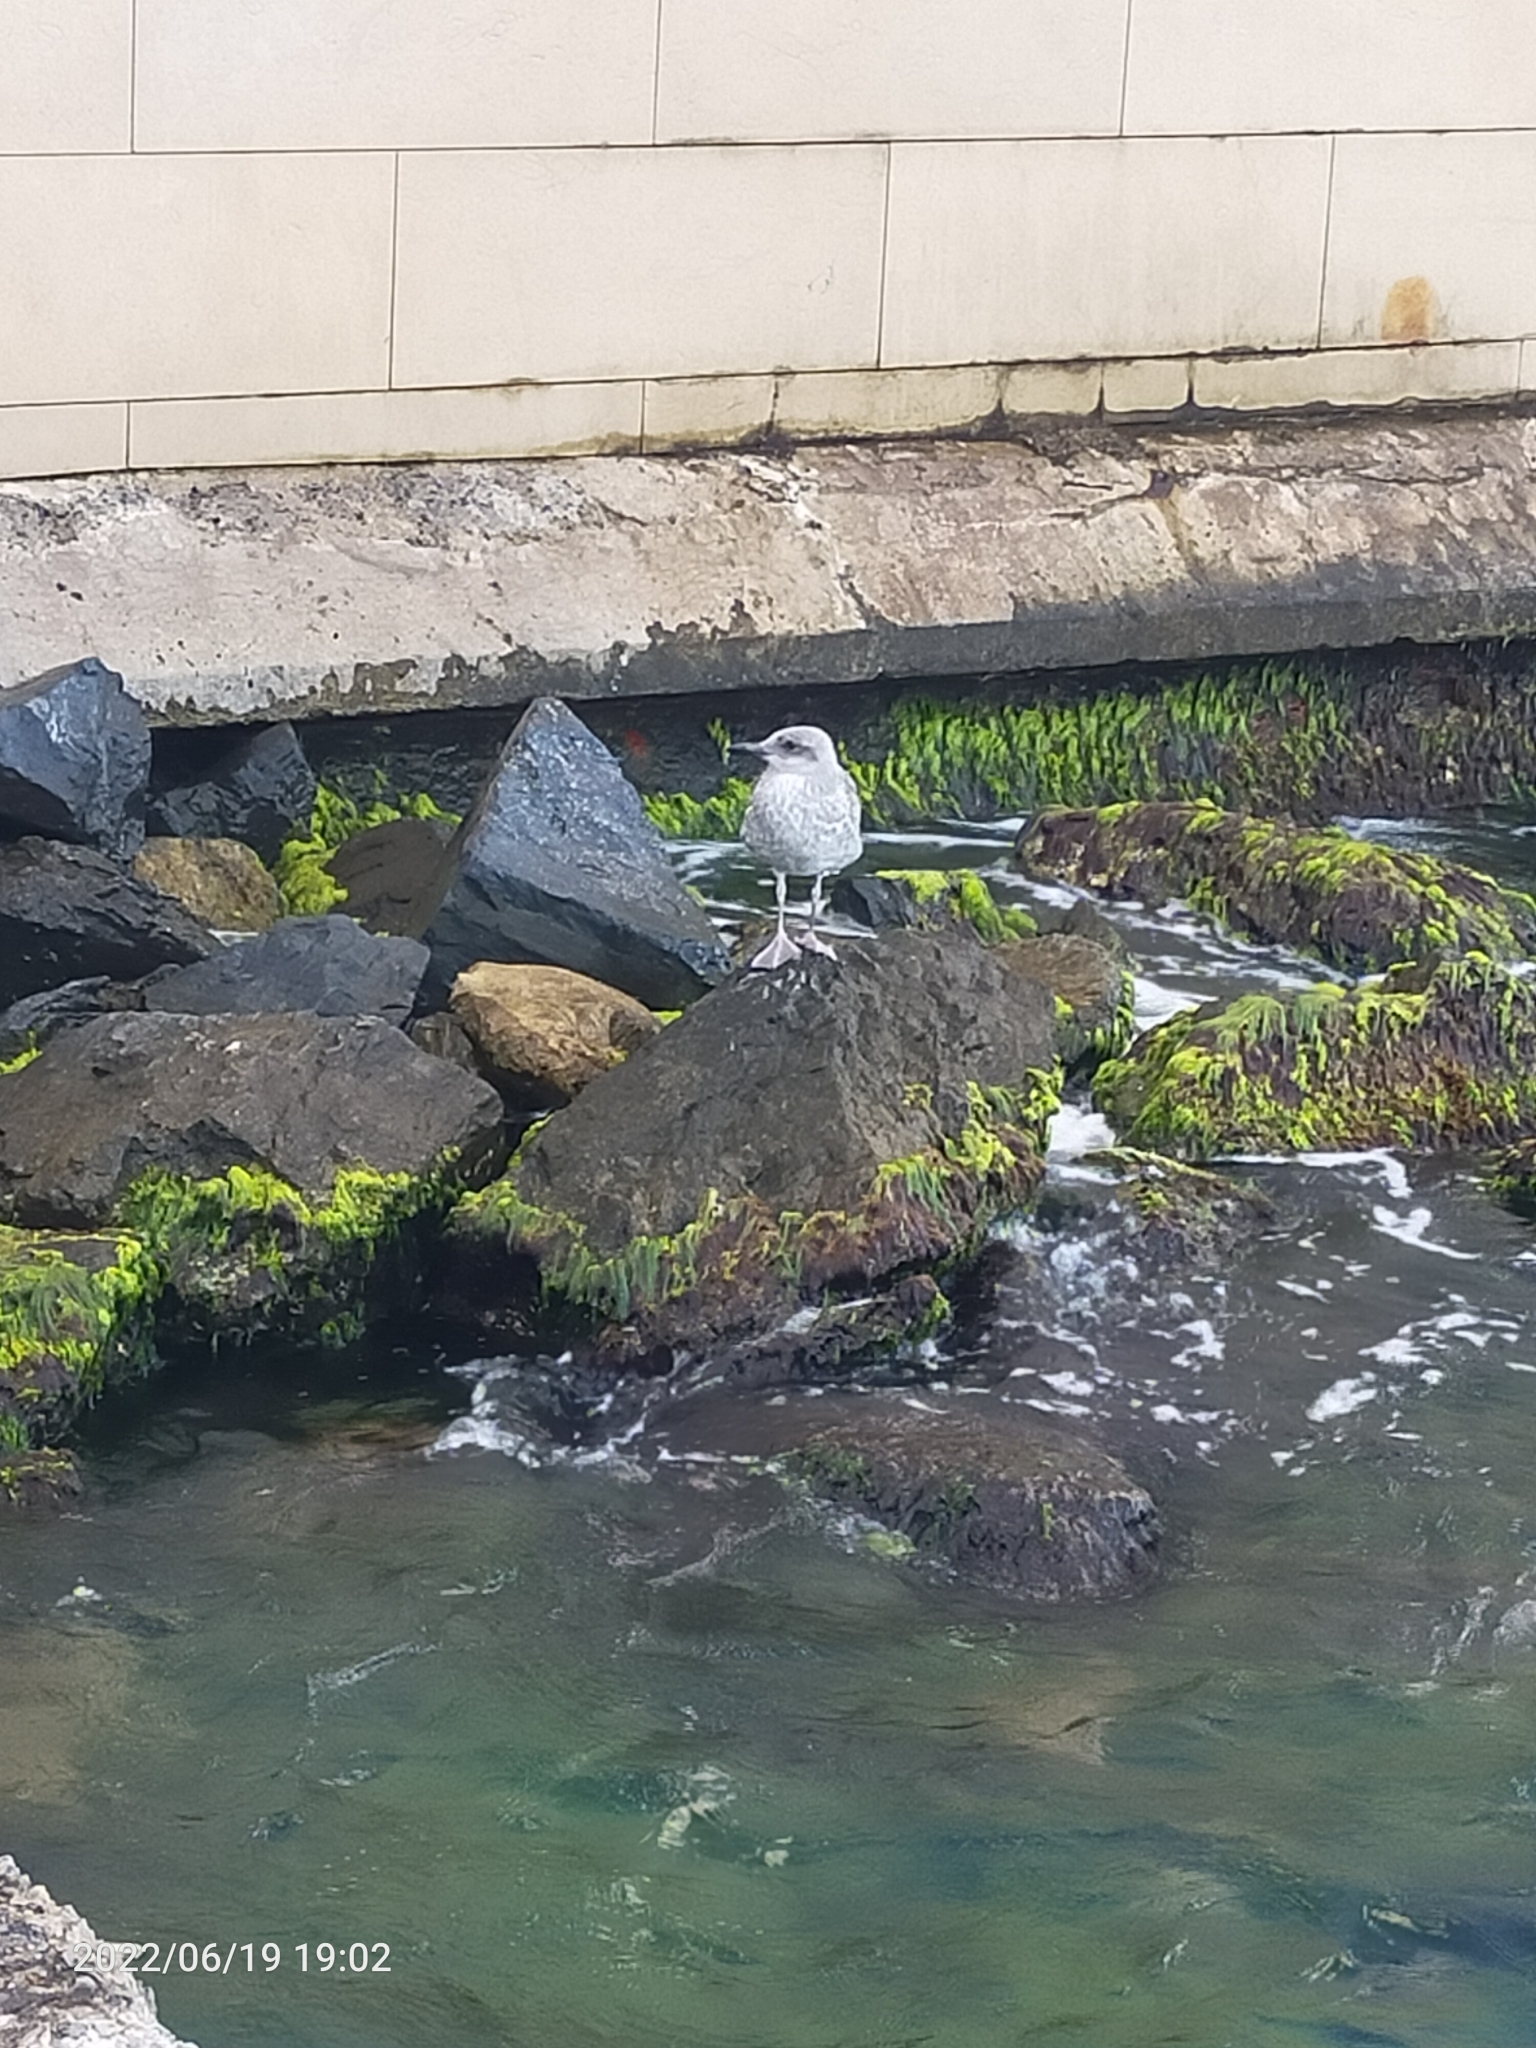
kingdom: Animalia
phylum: Chordata
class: Aves
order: Charadriiformes
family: Laridae
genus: Larus
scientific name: Larus michahellis
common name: Yellow-legged gull
